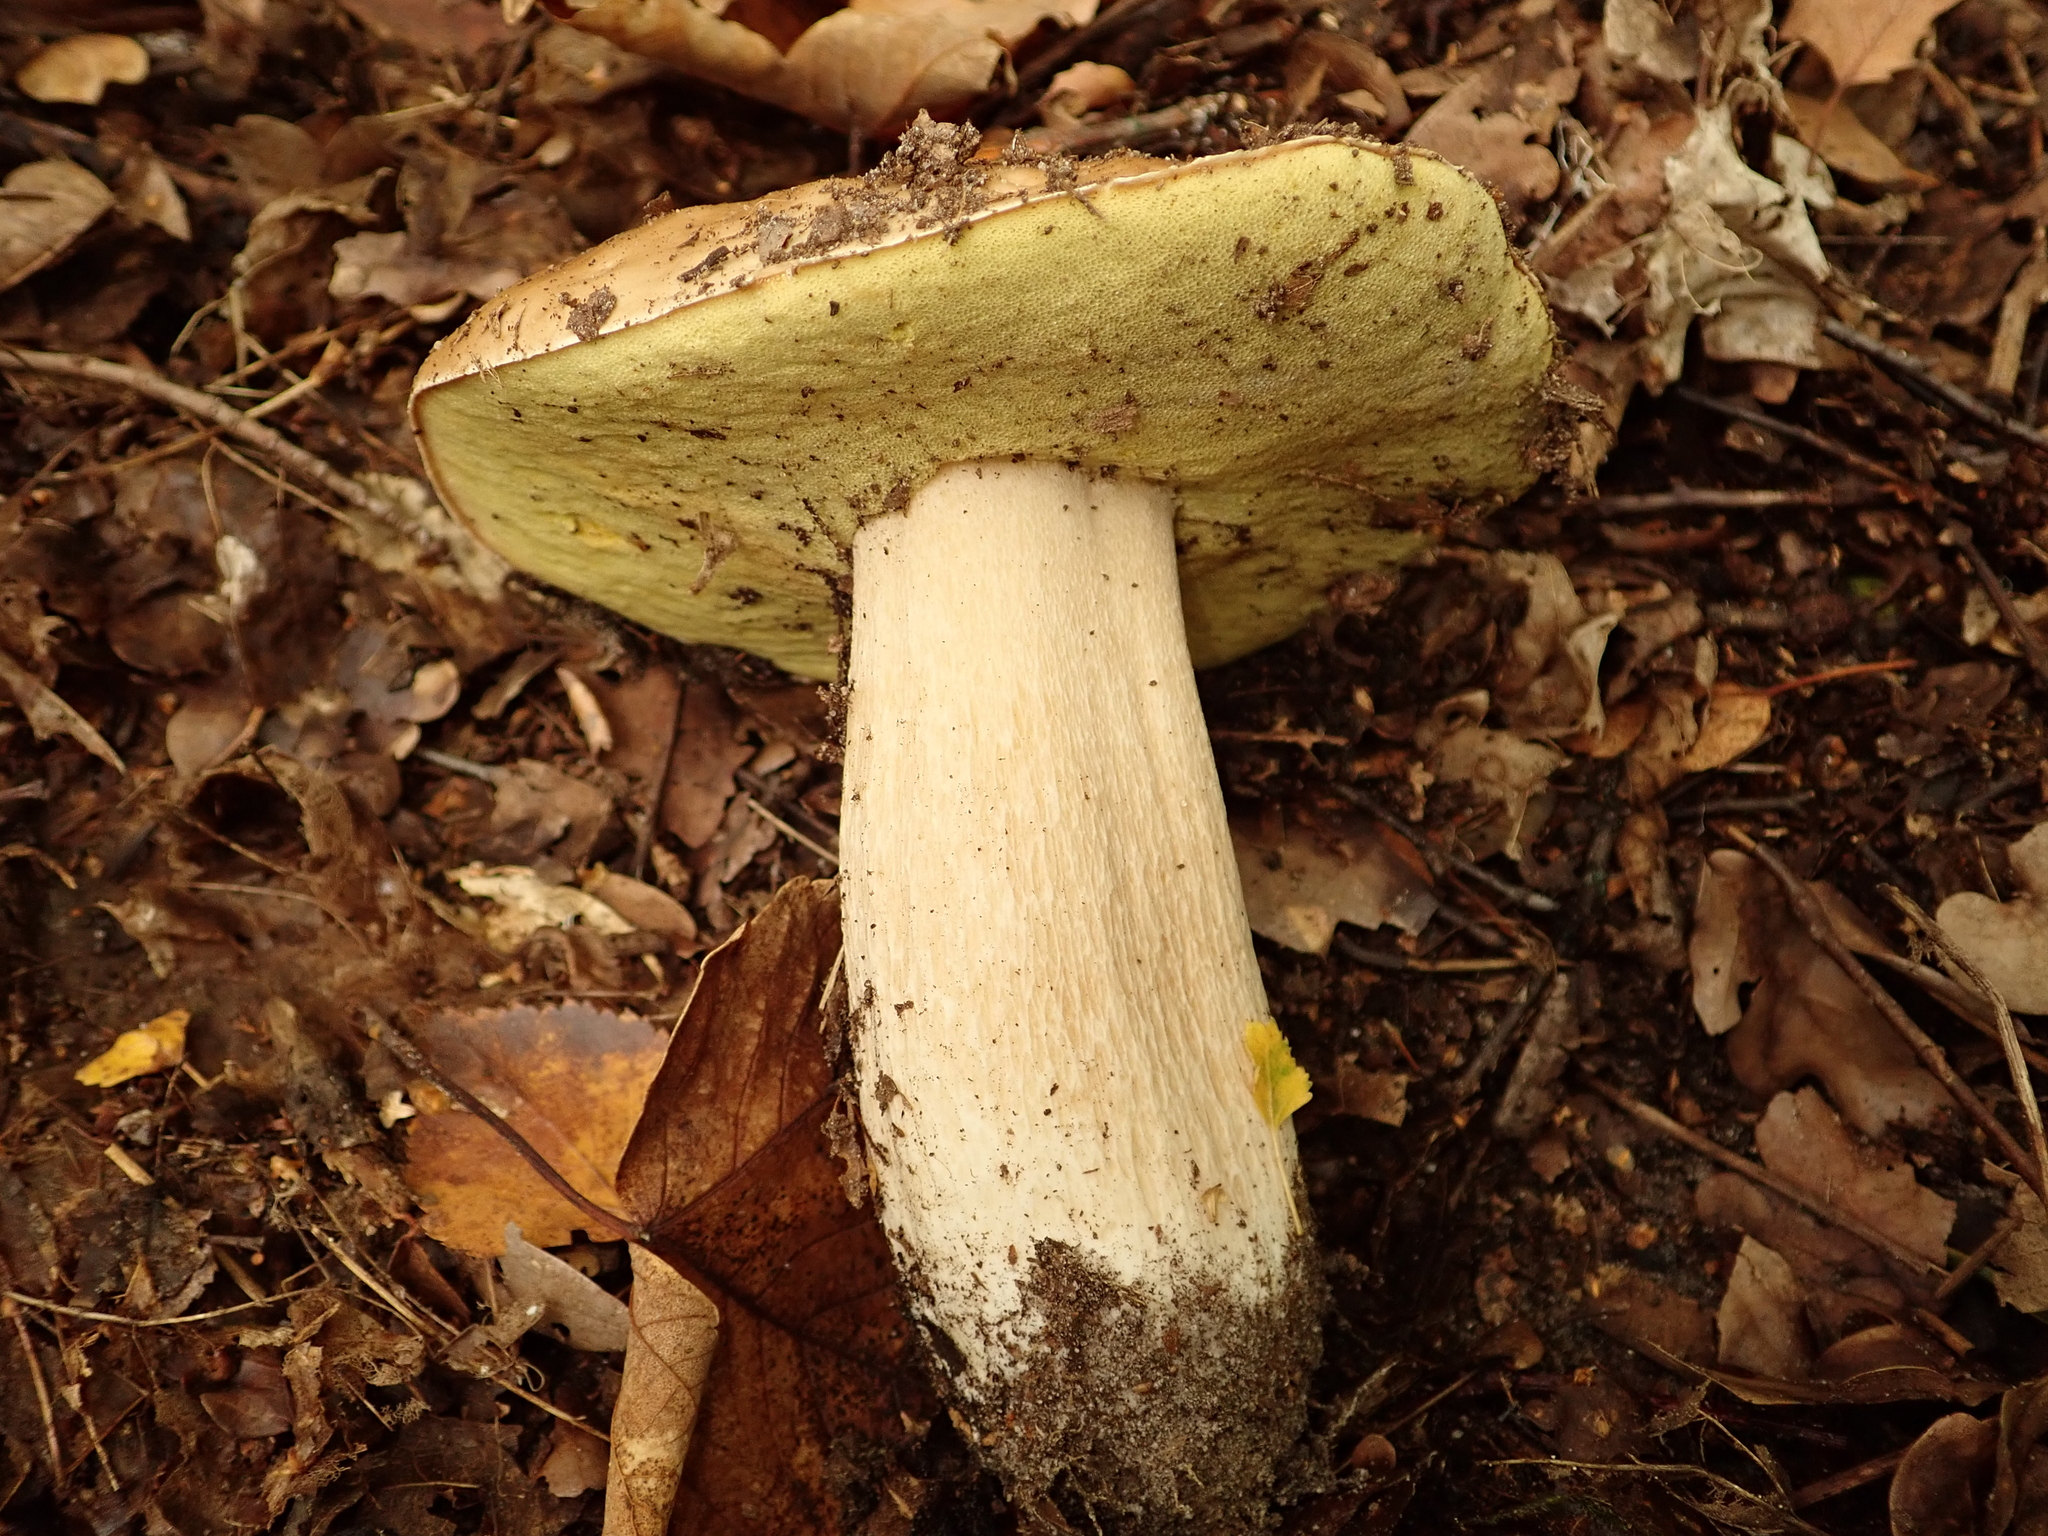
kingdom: Fungi
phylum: Basidiomycota
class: Agaricomycetes
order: Boletales
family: Boletaceae
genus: Boletus
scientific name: Boletus edulis
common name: Cep
